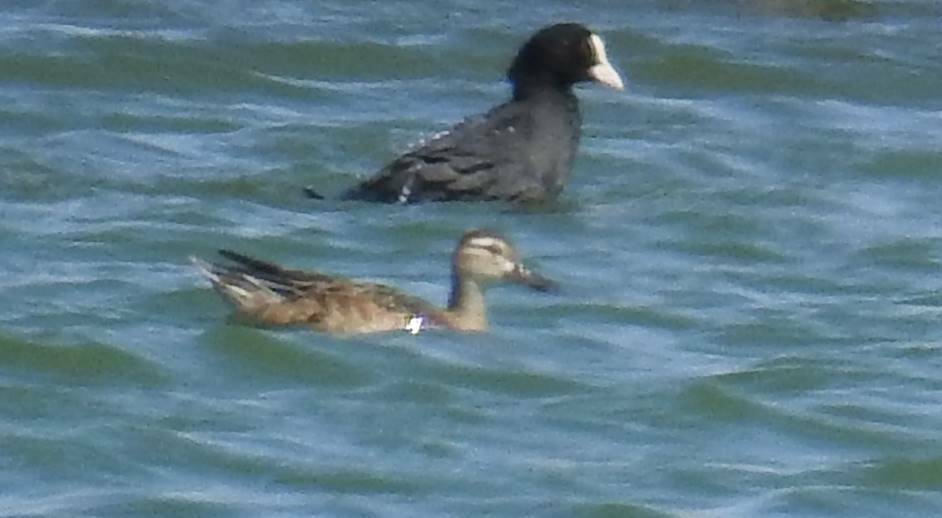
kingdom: Animalia
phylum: Chordata
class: Aves
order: Anseriformes
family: Anatidae
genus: Spatula
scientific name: Spatula querquedula
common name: Garganey
